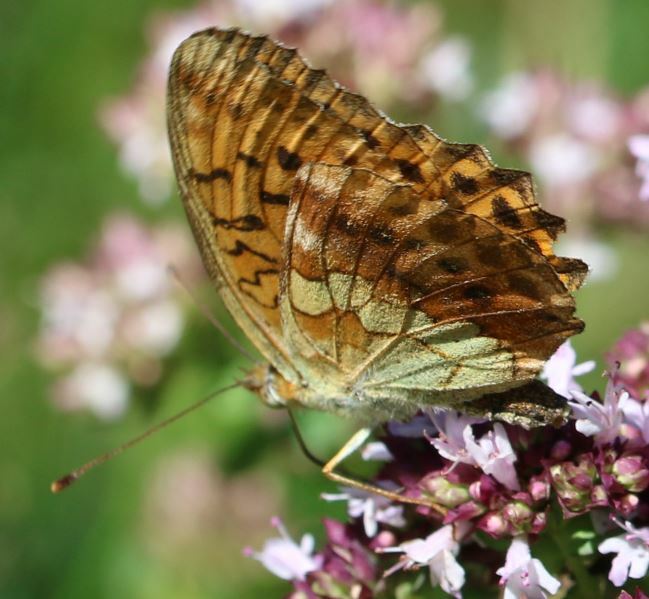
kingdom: Animalia
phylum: Arthropoda
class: Insecta
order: Lepidoptera
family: Nymphalidae
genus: Brenthis
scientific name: Brenthis daphne
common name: Marbled fritillary
